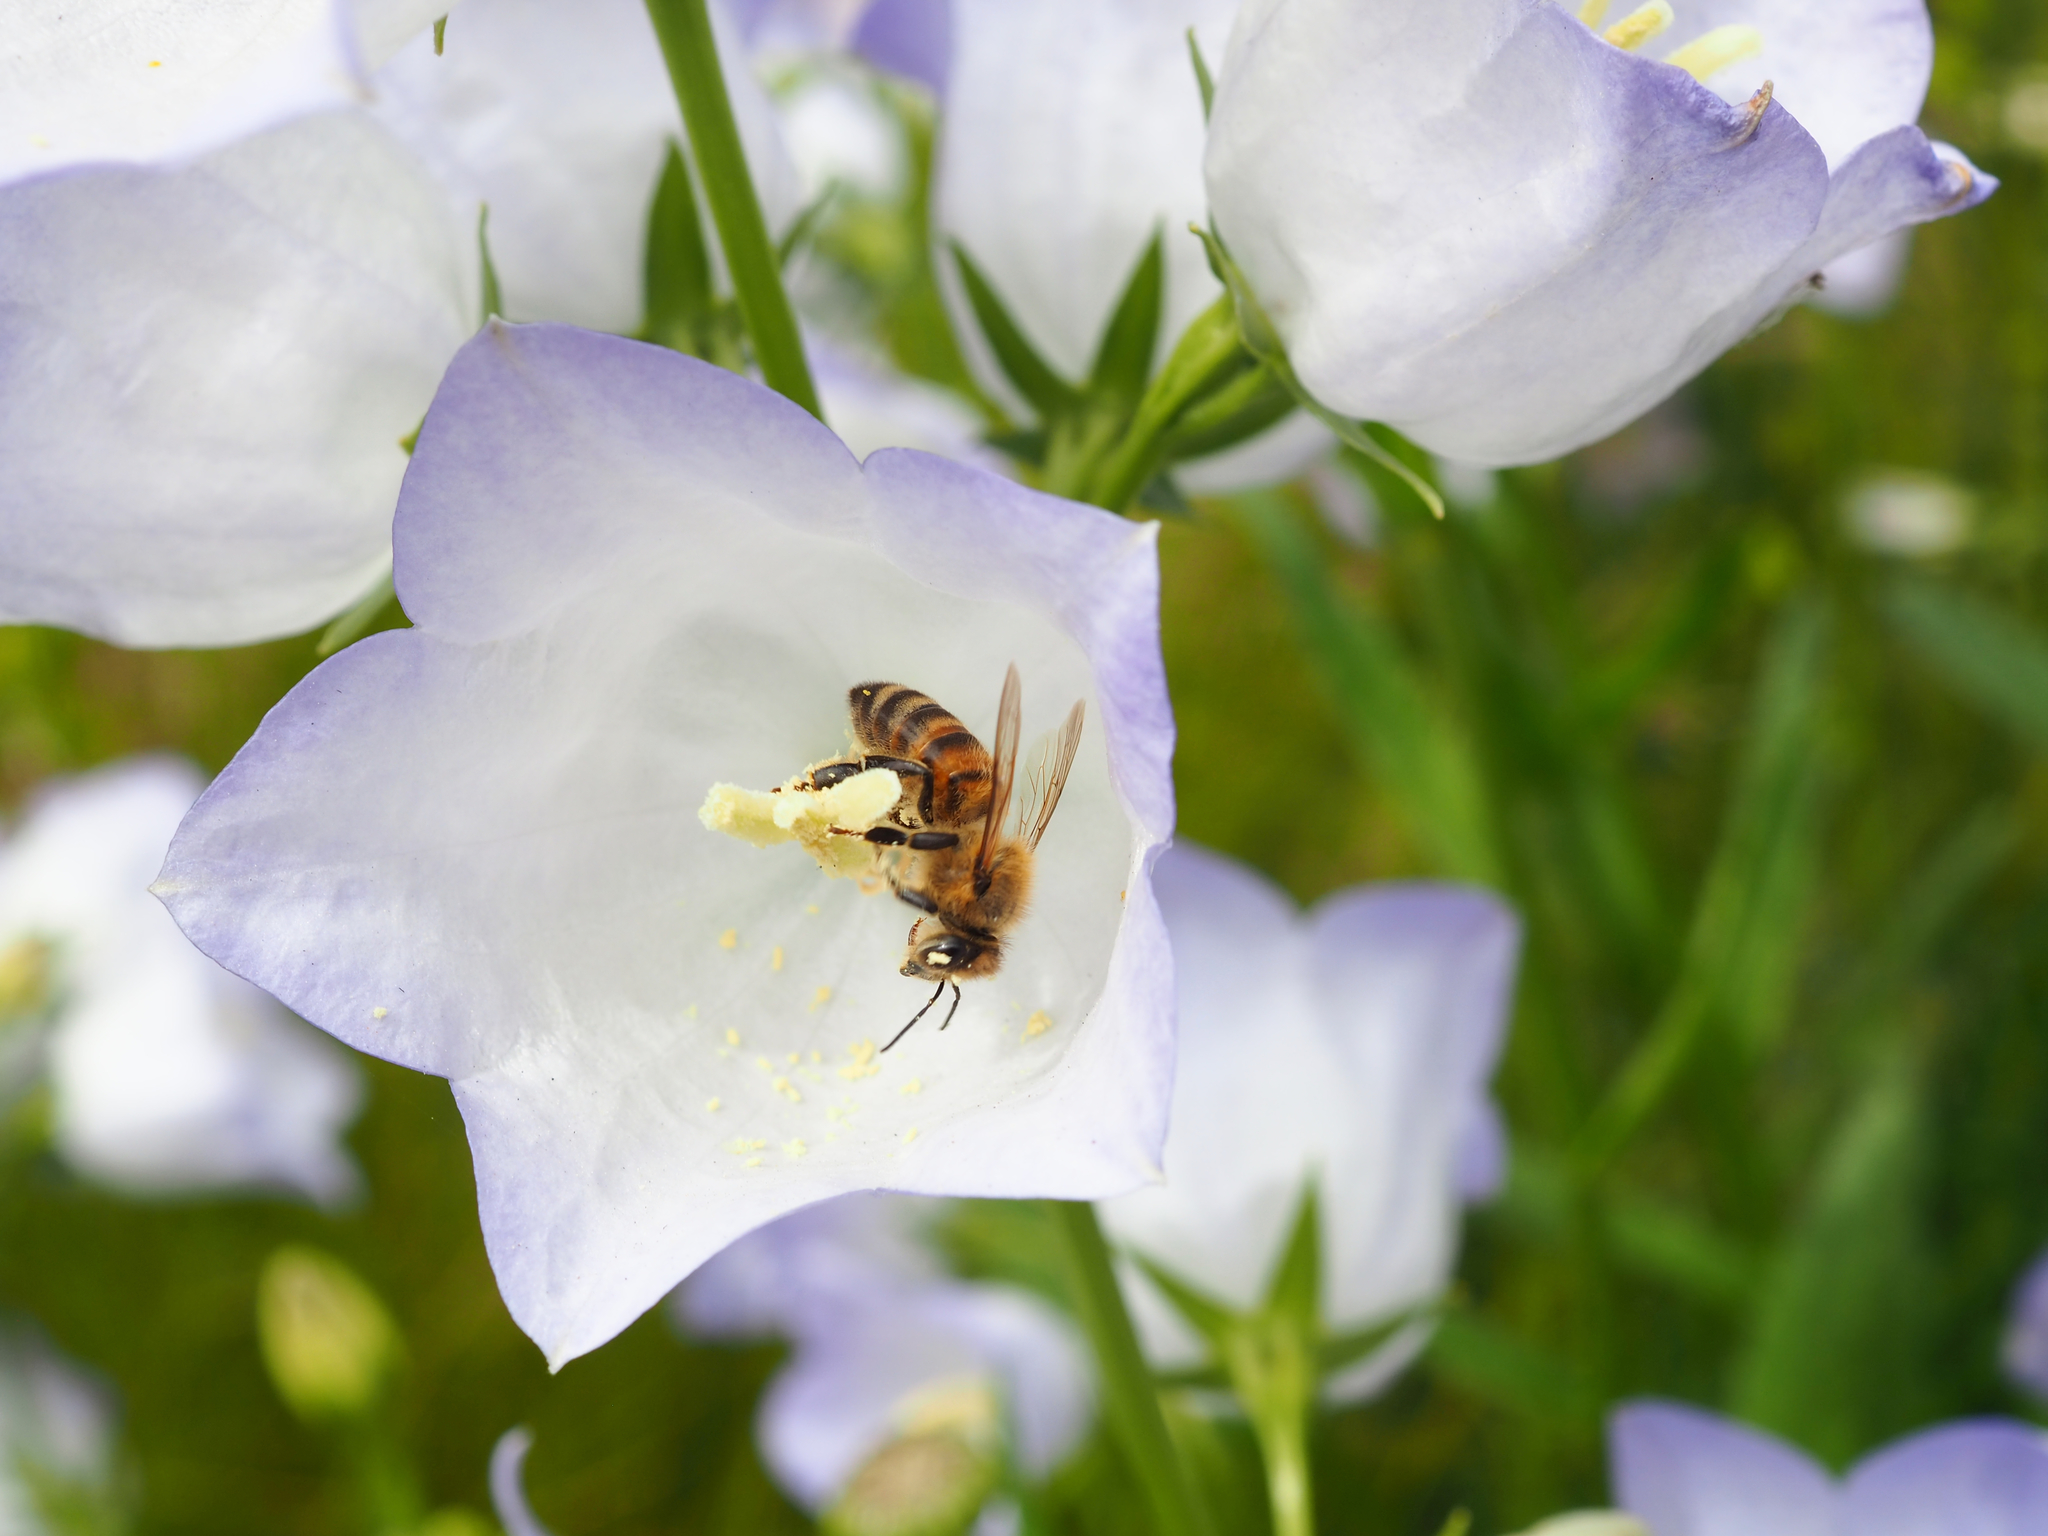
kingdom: Animalia
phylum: Arthropoda
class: Insecta
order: Hymenoptera
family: Apidae
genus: Apis
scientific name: Apis mellifera
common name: Honey bee
